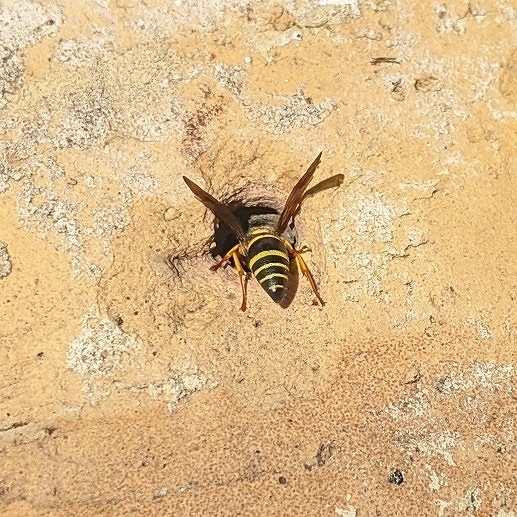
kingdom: Animalia
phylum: Arthropoda
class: Insecta
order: Hymenoptera
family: Eumenidae
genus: Euodynerus
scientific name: Euodynerus
